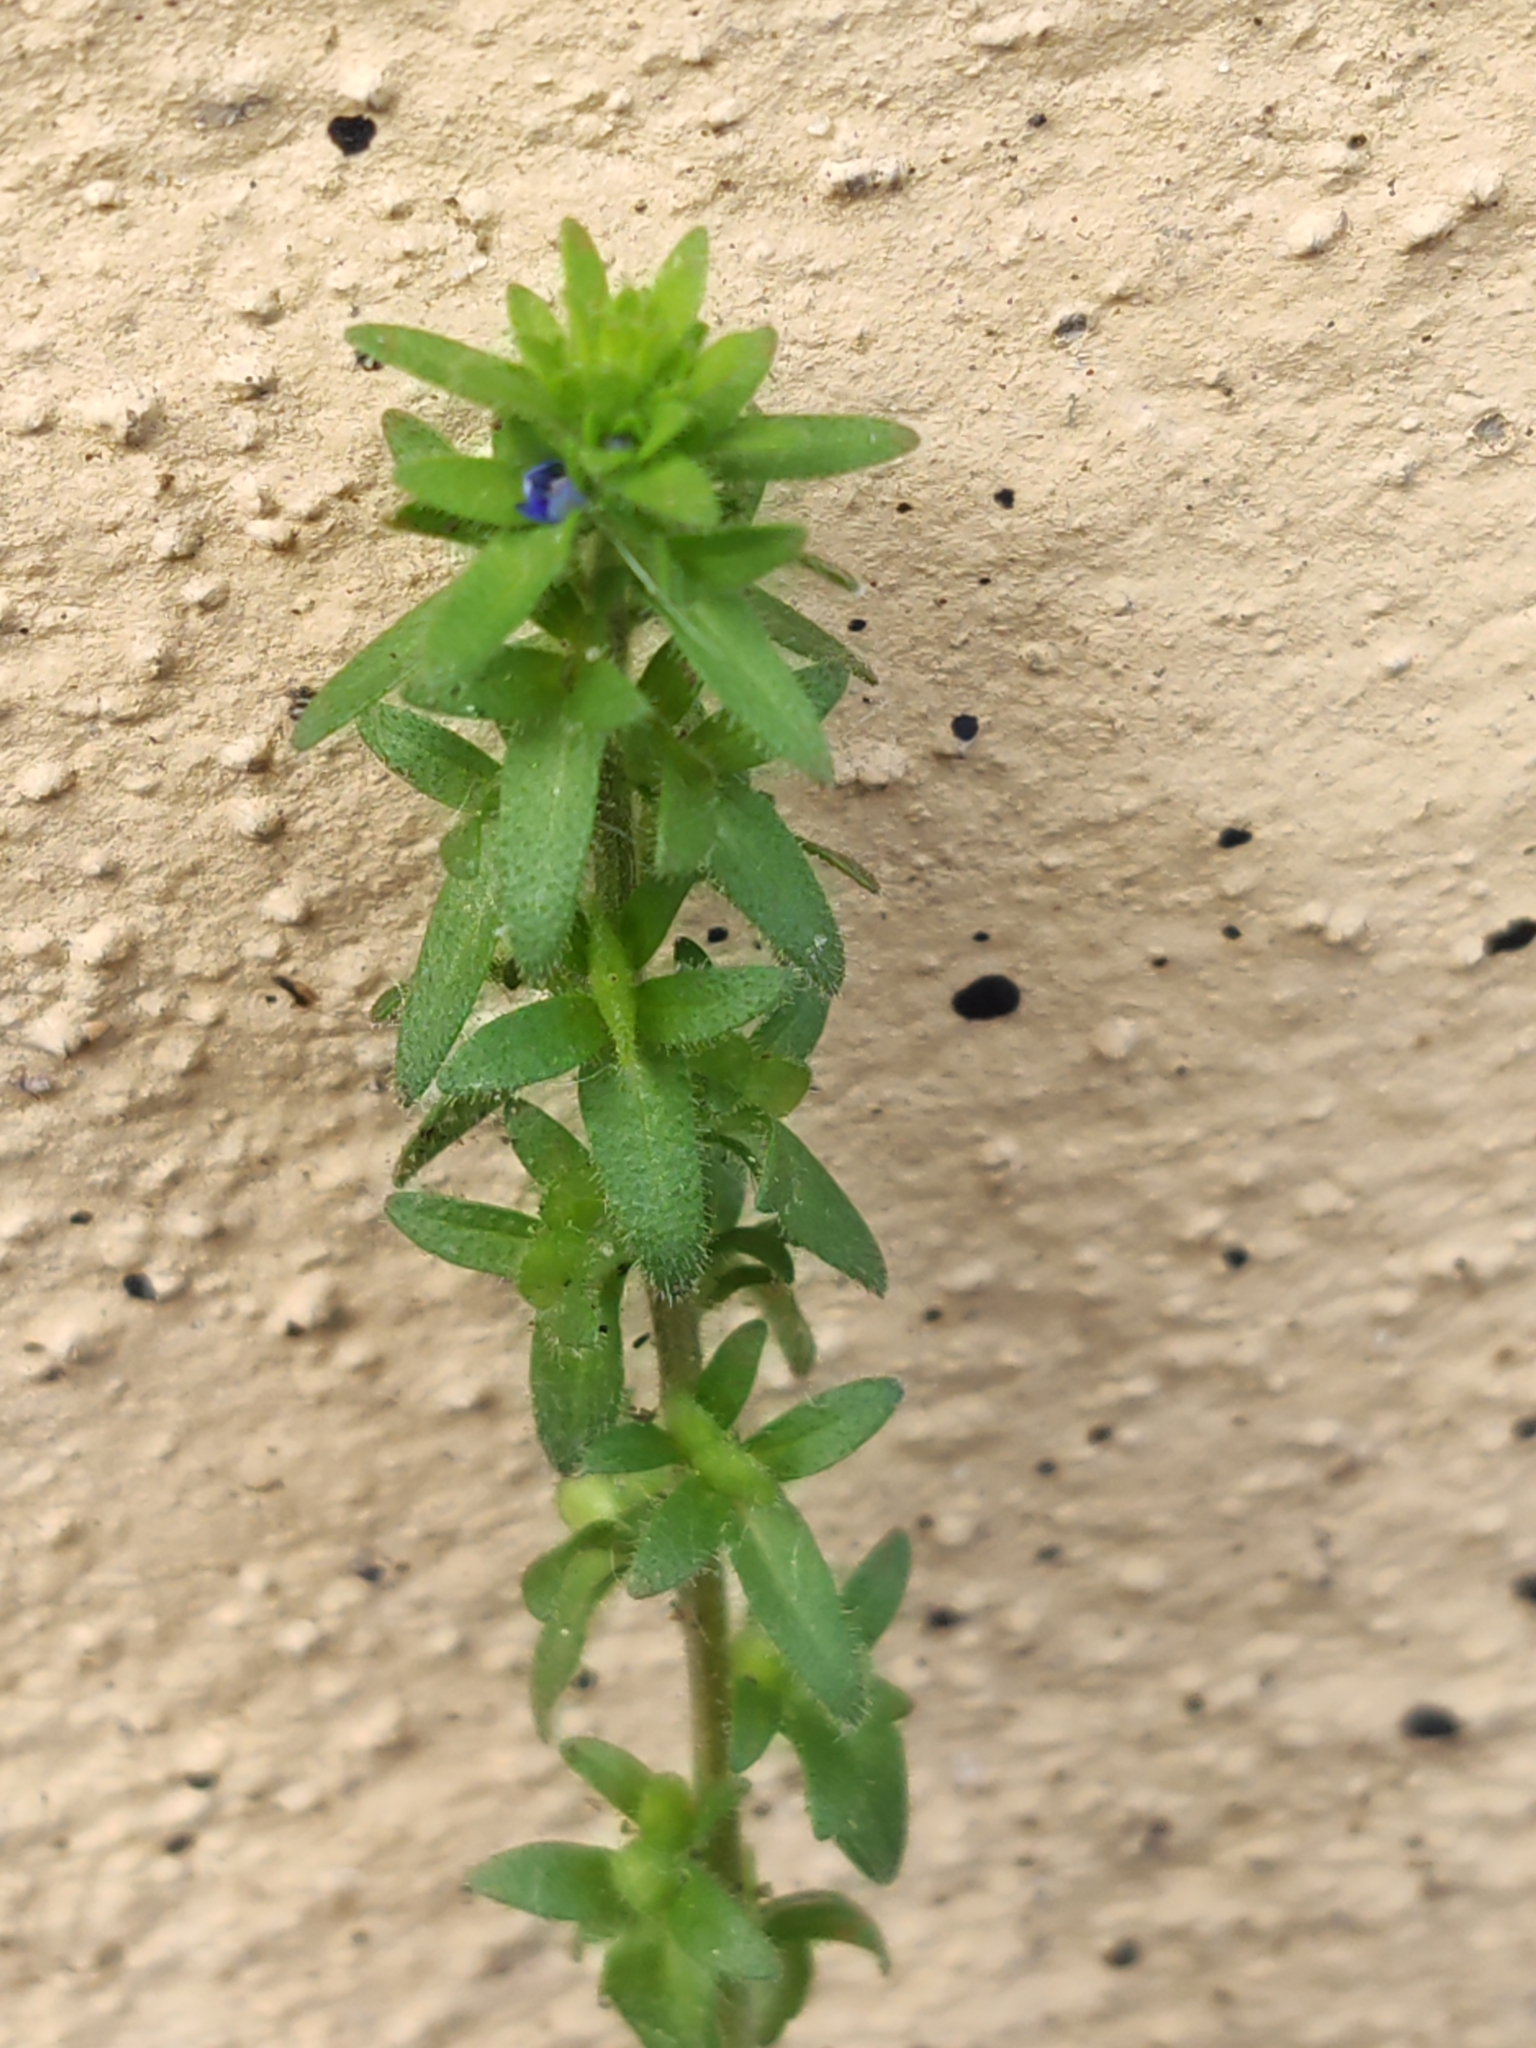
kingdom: Plantae
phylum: Tracheophyta
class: Magnoliopsida
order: Lamiales
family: Plantaginaceae
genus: Veronica
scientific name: Veronica arvensis
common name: Corn speedwell
